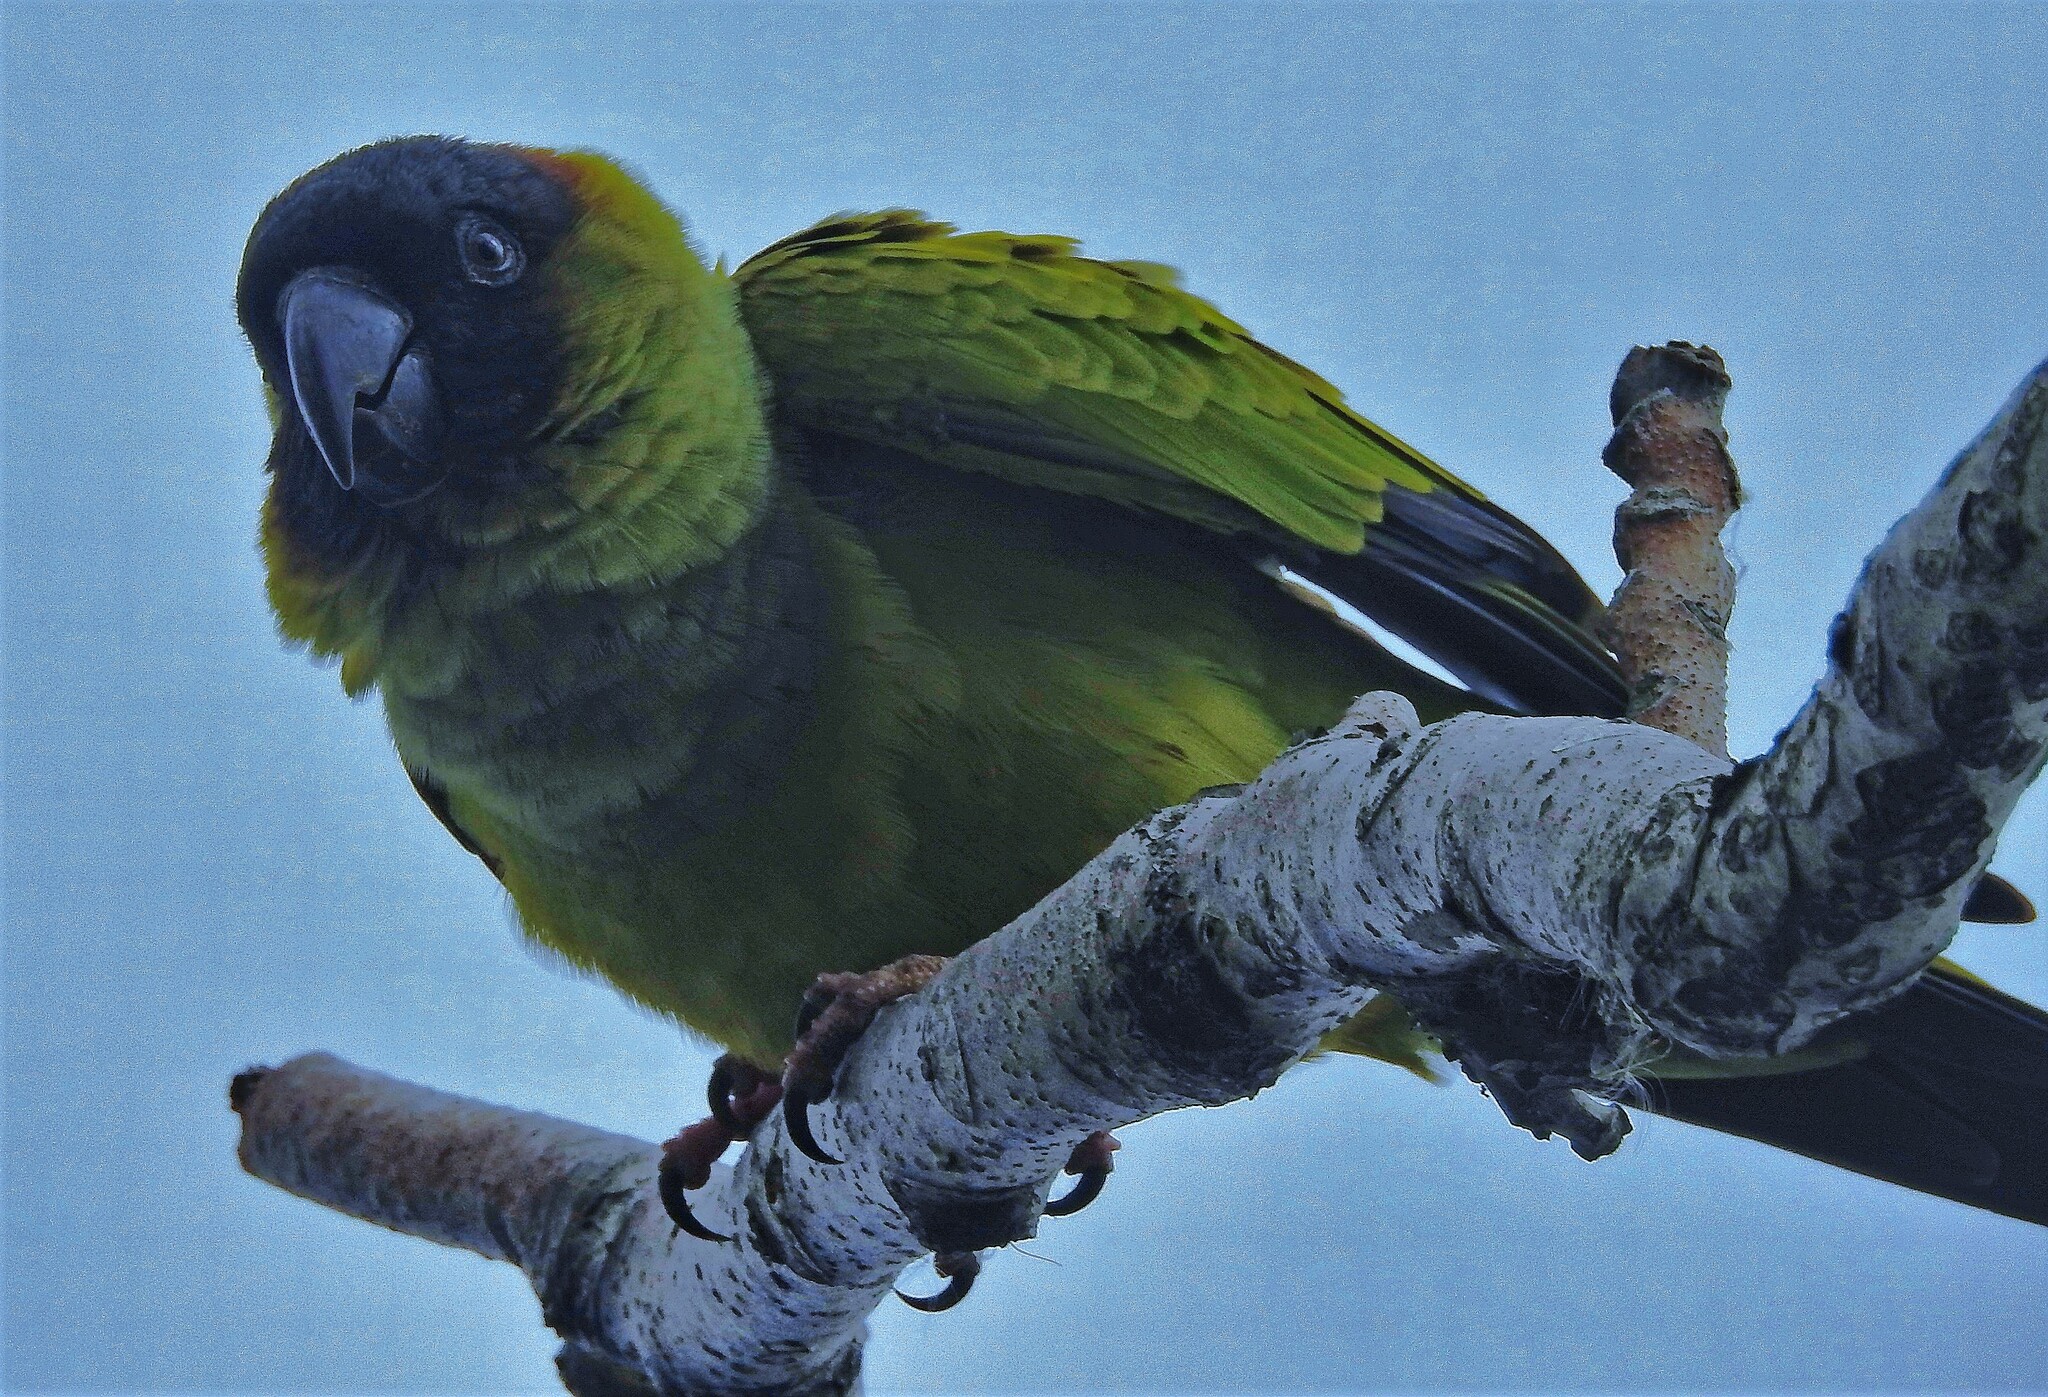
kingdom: Animalia
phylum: Chordata
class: Aves
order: Psittaciformes
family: Psittacidae
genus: Nandayus
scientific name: Nandayus nenday
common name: Nanday parakeet
